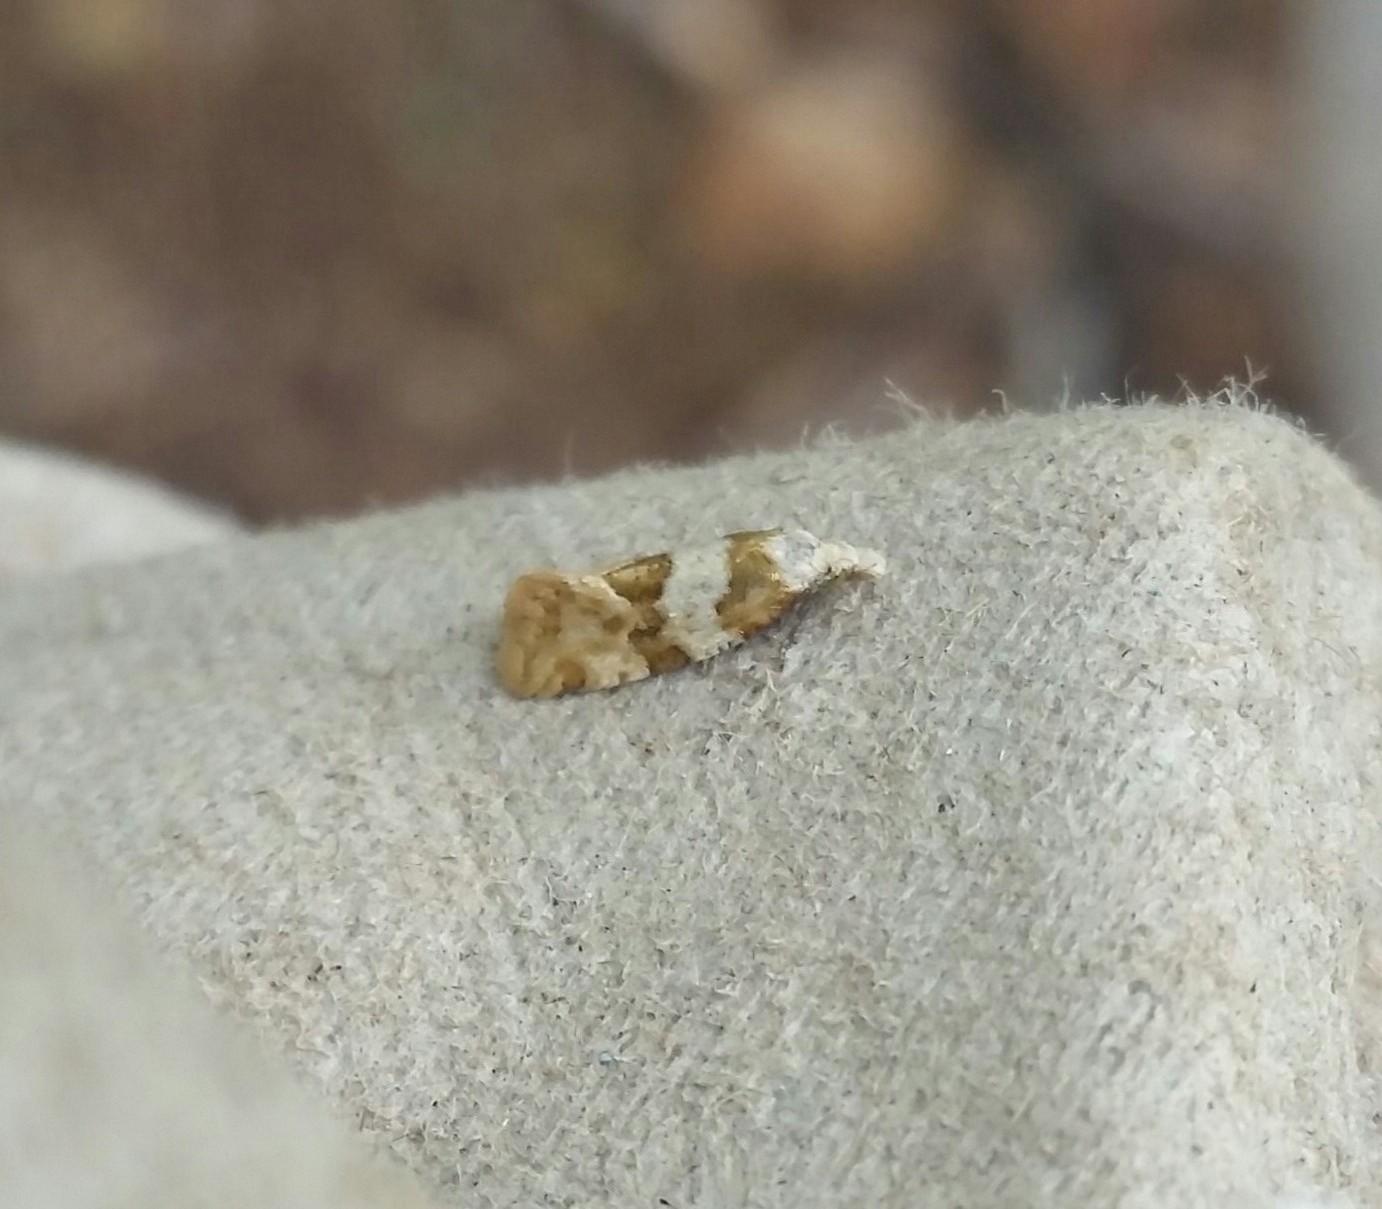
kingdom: Animalia
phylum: Arthropoda
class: Insecta
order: Lepidoptera
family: Tortricidae
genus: Aethes
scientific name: Aethes argentilimitana
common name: Silver-bordered aethes
